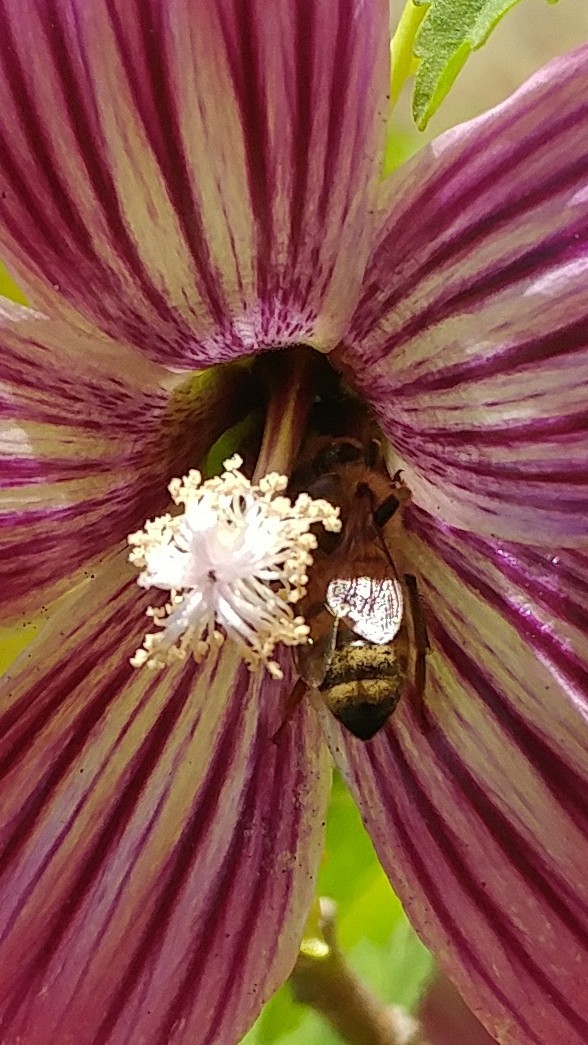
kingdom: Animalia
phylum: Arthropoda
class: Insecta
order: Hymenoptera
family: Apidae
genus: Apis
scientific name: Apis mellifera
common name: Honey bee
